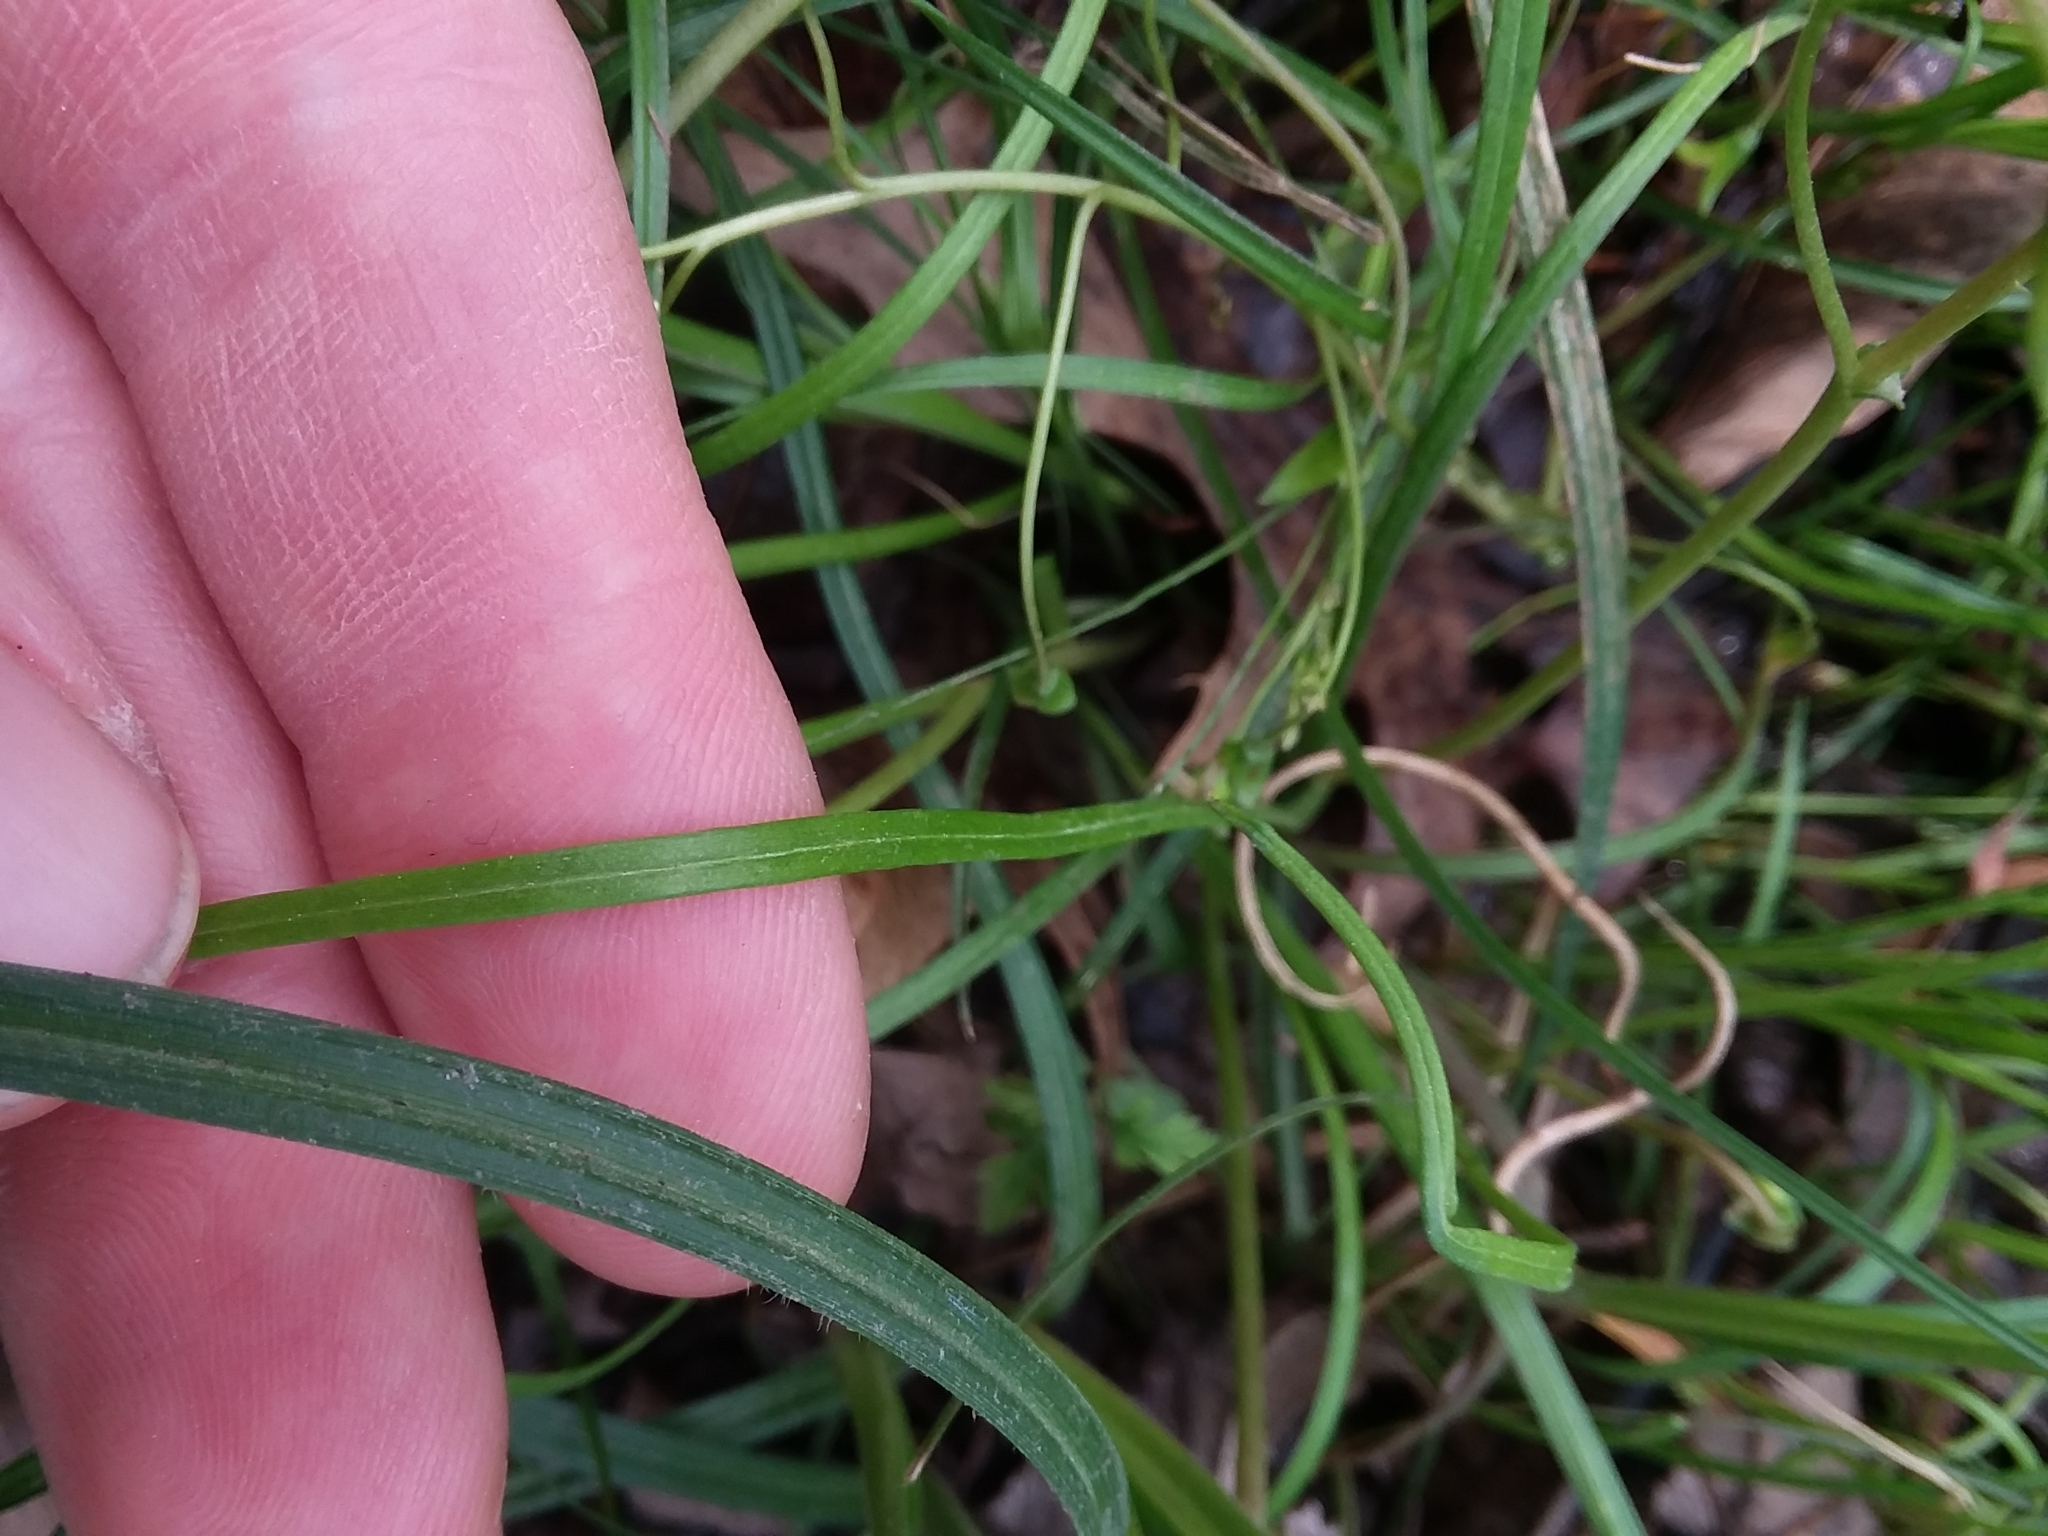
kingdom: Plantae
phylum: Tracheophyta
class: Magnoliopsida
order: Caryophyllales
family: Montiaceae
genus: Claytonia
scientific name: Claytonia virginica
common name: Virginia springbeauty
